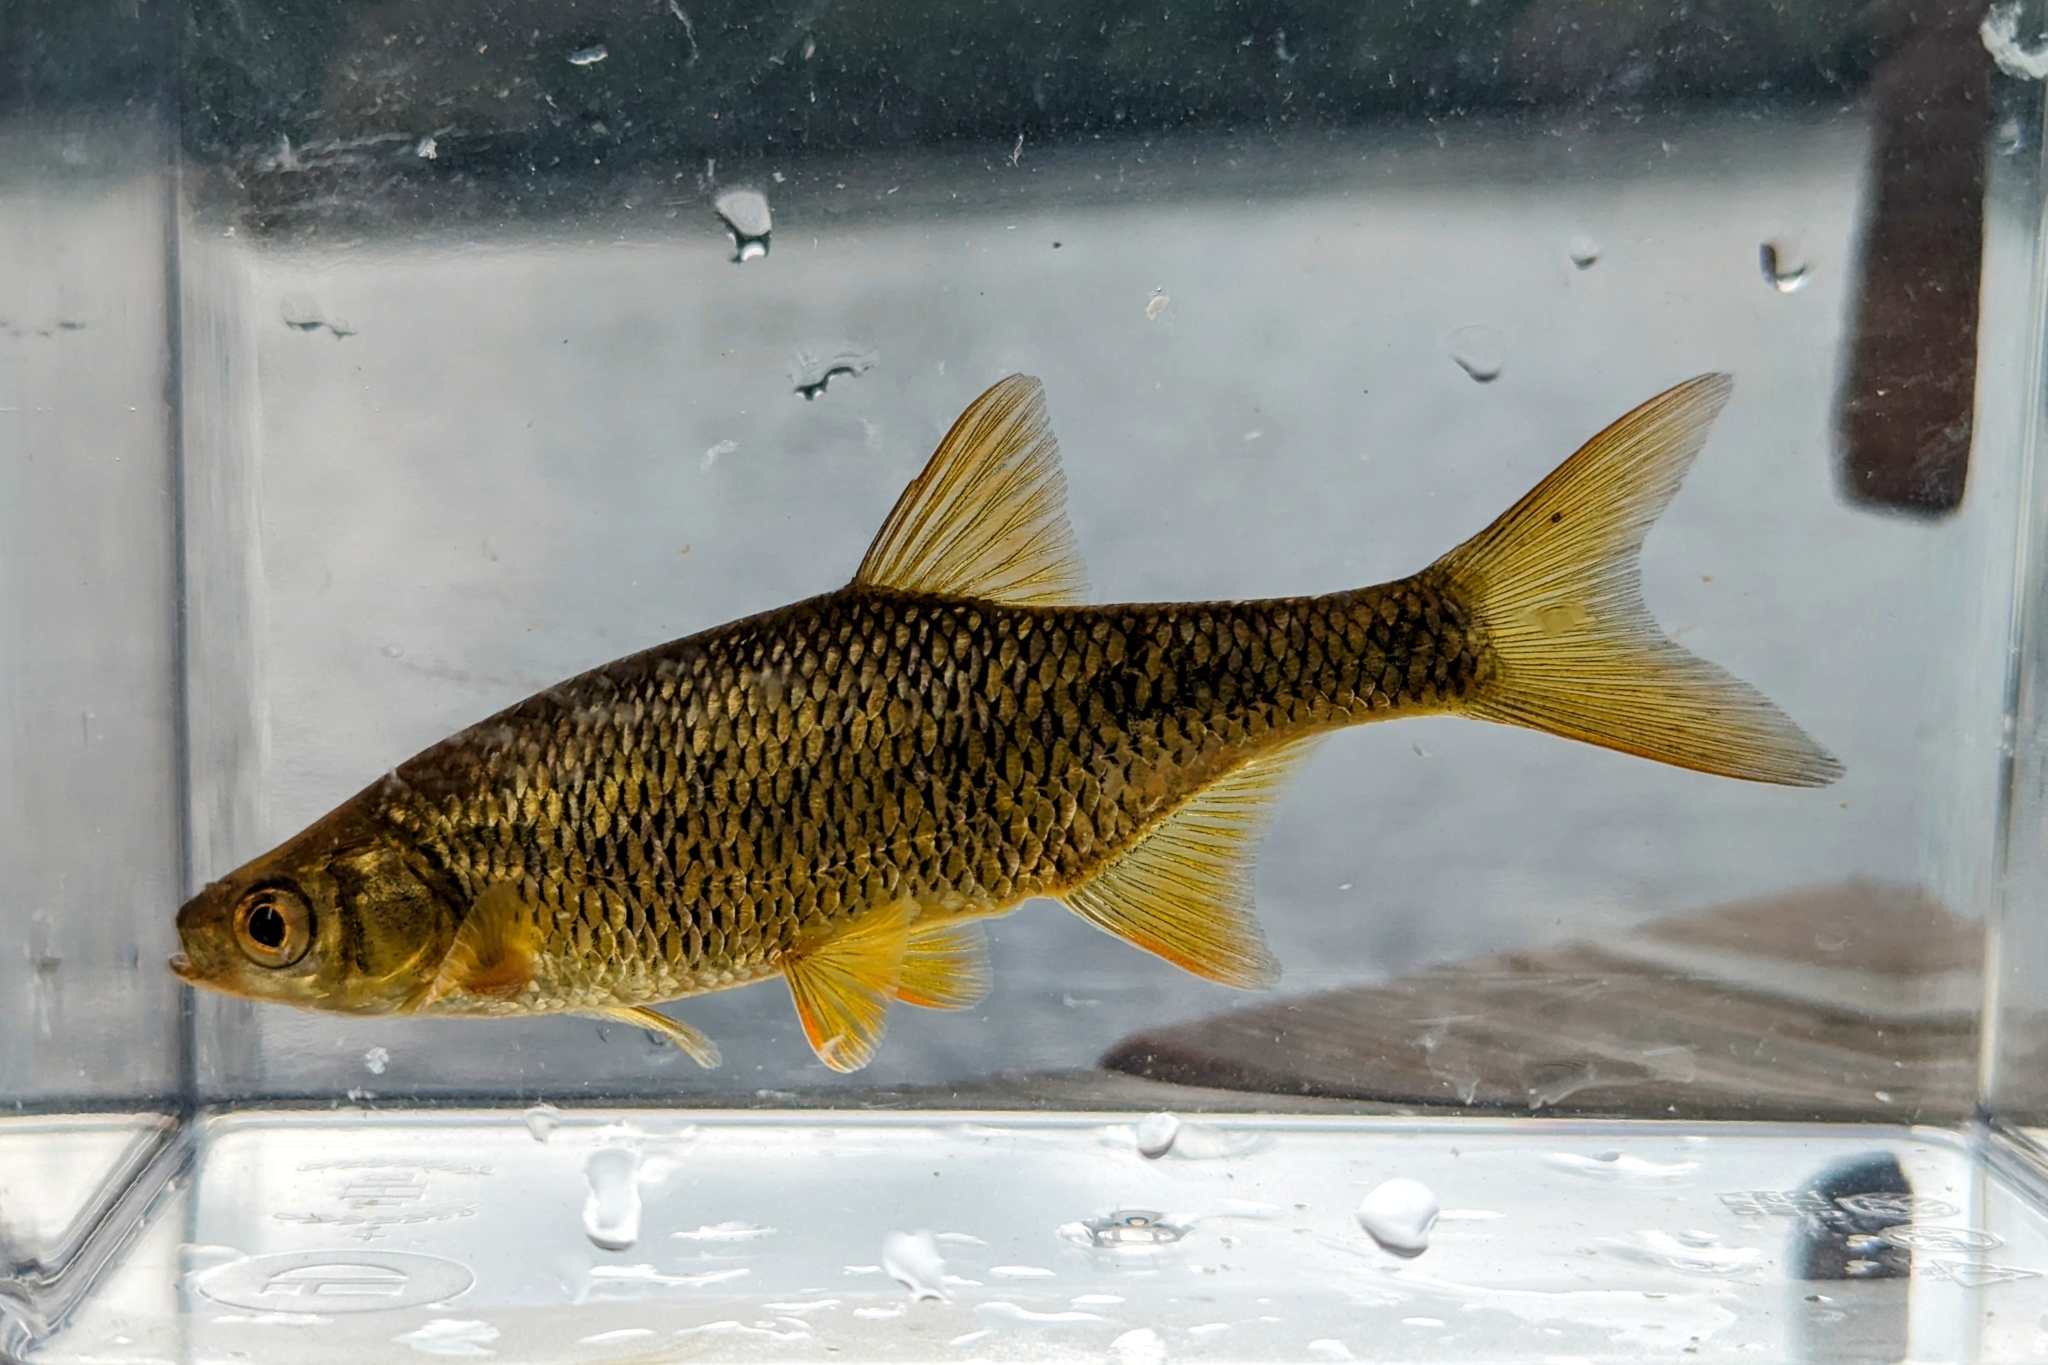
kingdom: Animalia
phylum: Chordata
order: Cypriniformes
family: Cyprinidae
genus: Notemigonus
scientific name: Notemigonus crysoleucas
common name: Golden shiner
